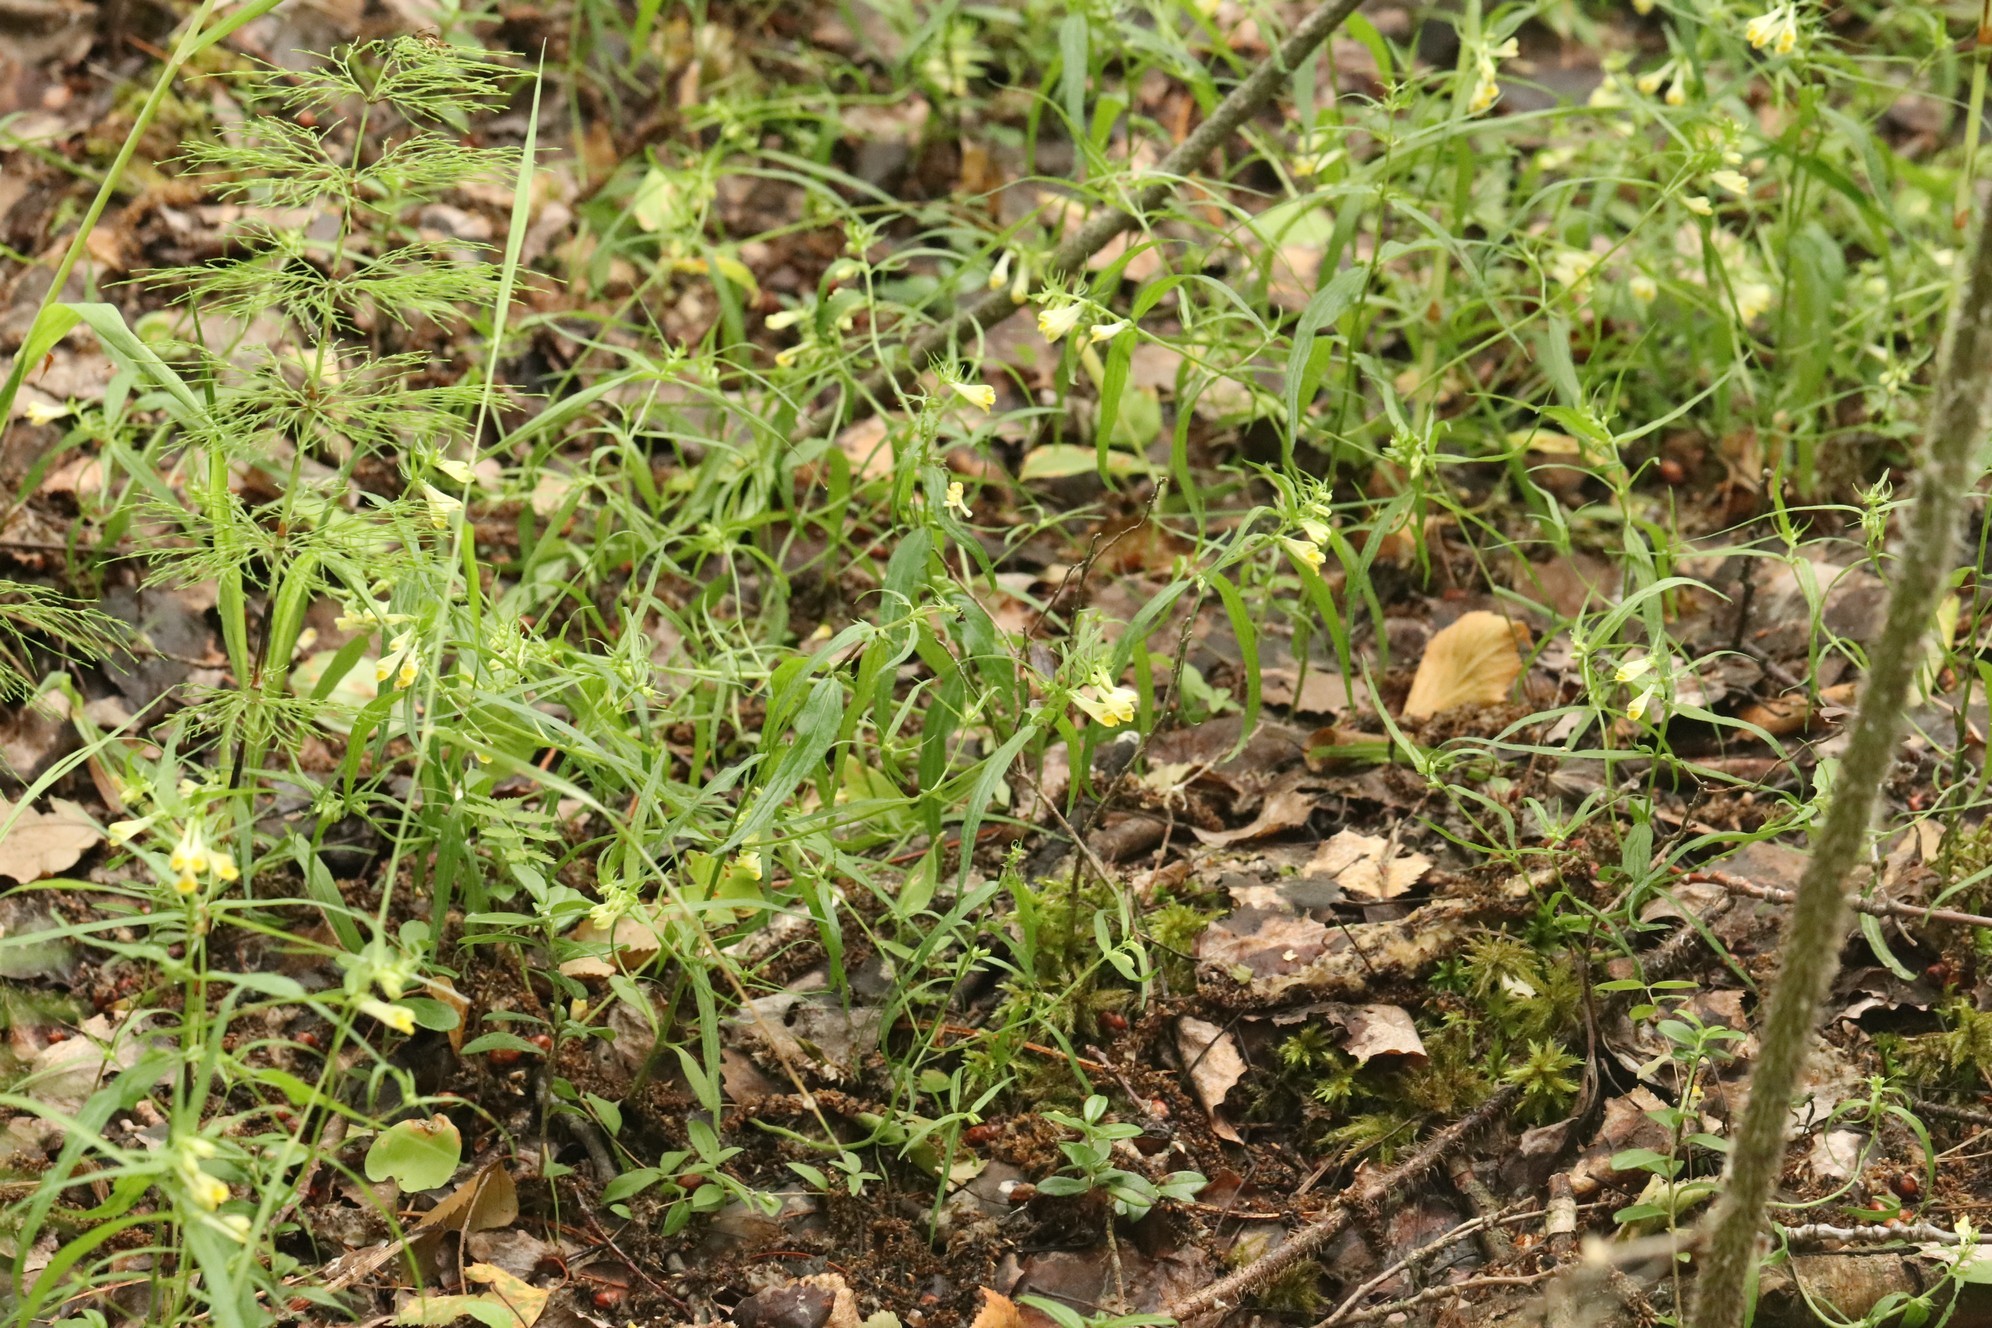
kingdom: Plantae
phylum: Tracheophyta
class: Magnoliopsida
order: Lamiales
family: Orobanchaceae
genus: Melampyrum
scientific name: Melampyrum pratense
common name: Common cow-wheat
